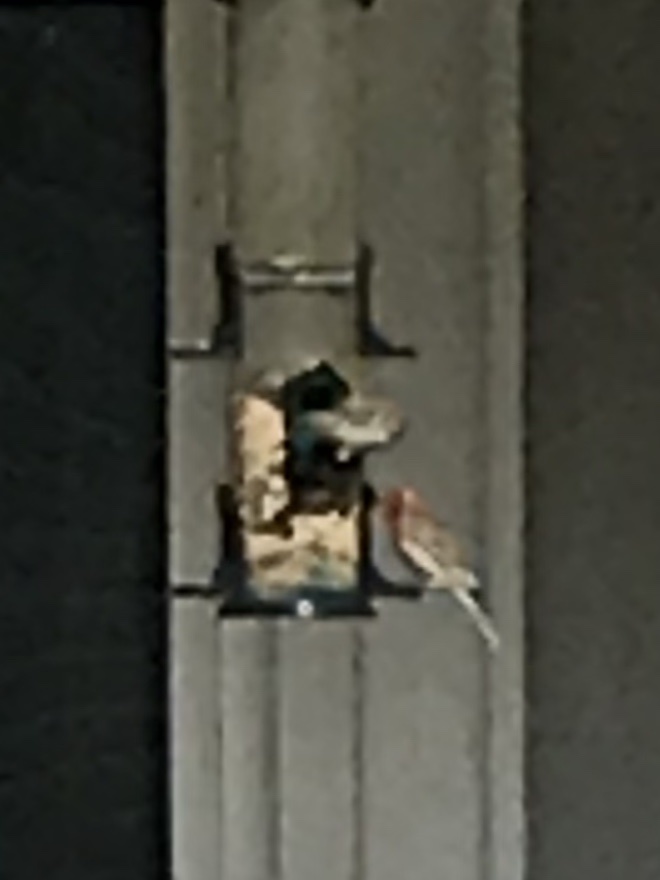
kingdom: Animalia
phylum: Chordata
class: Aves
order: Passeriformes
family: Fringillidae
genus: Haemorhous
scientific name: Haemorhous mexicanus
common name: House finch
